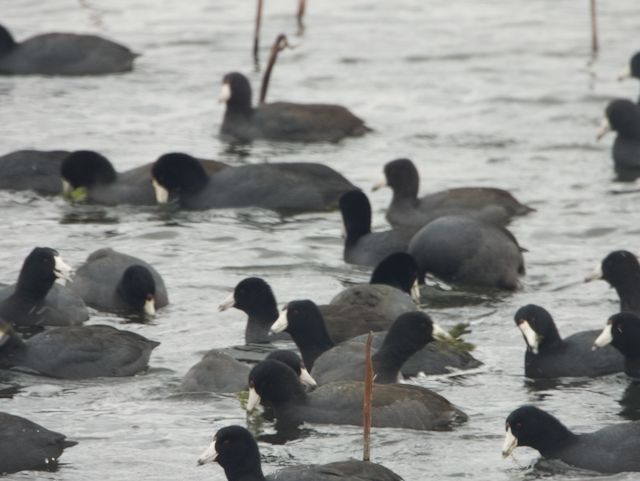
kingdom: Animalia
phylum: Chordata
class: Aves
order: Gruiformes
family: Rallidae
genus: Fulica
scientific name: Fulica americana
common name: American coot
